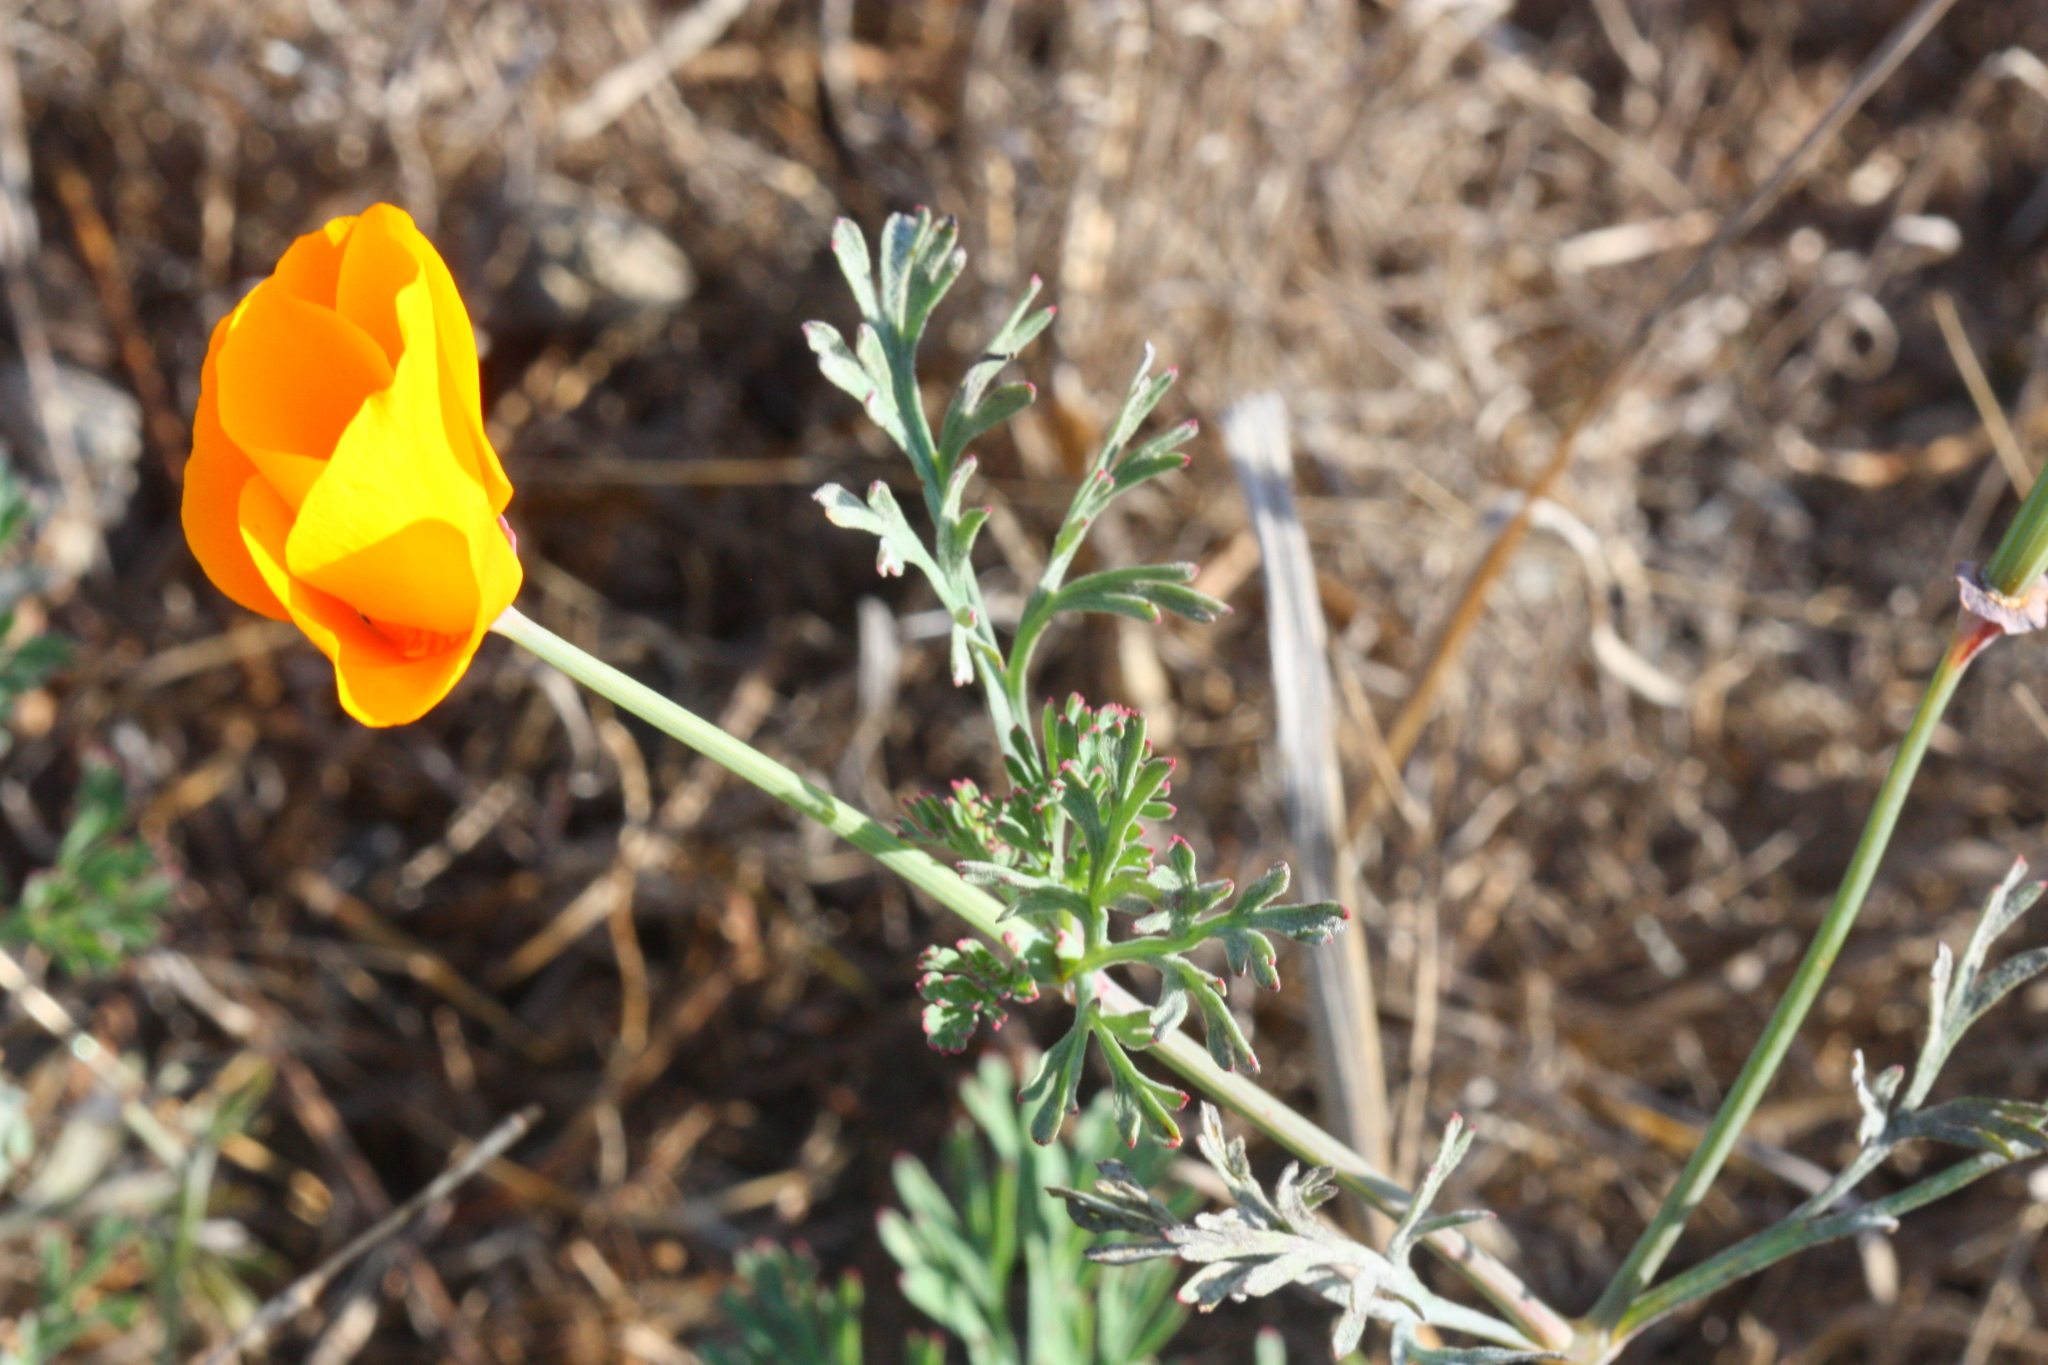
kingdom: Plantae
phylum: Tracheophyta
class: Magnoliopsida
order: Ranunculales
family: Papaveraceae
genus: Eschscholzia
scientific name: Eschscholzia californica
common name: California poppy
